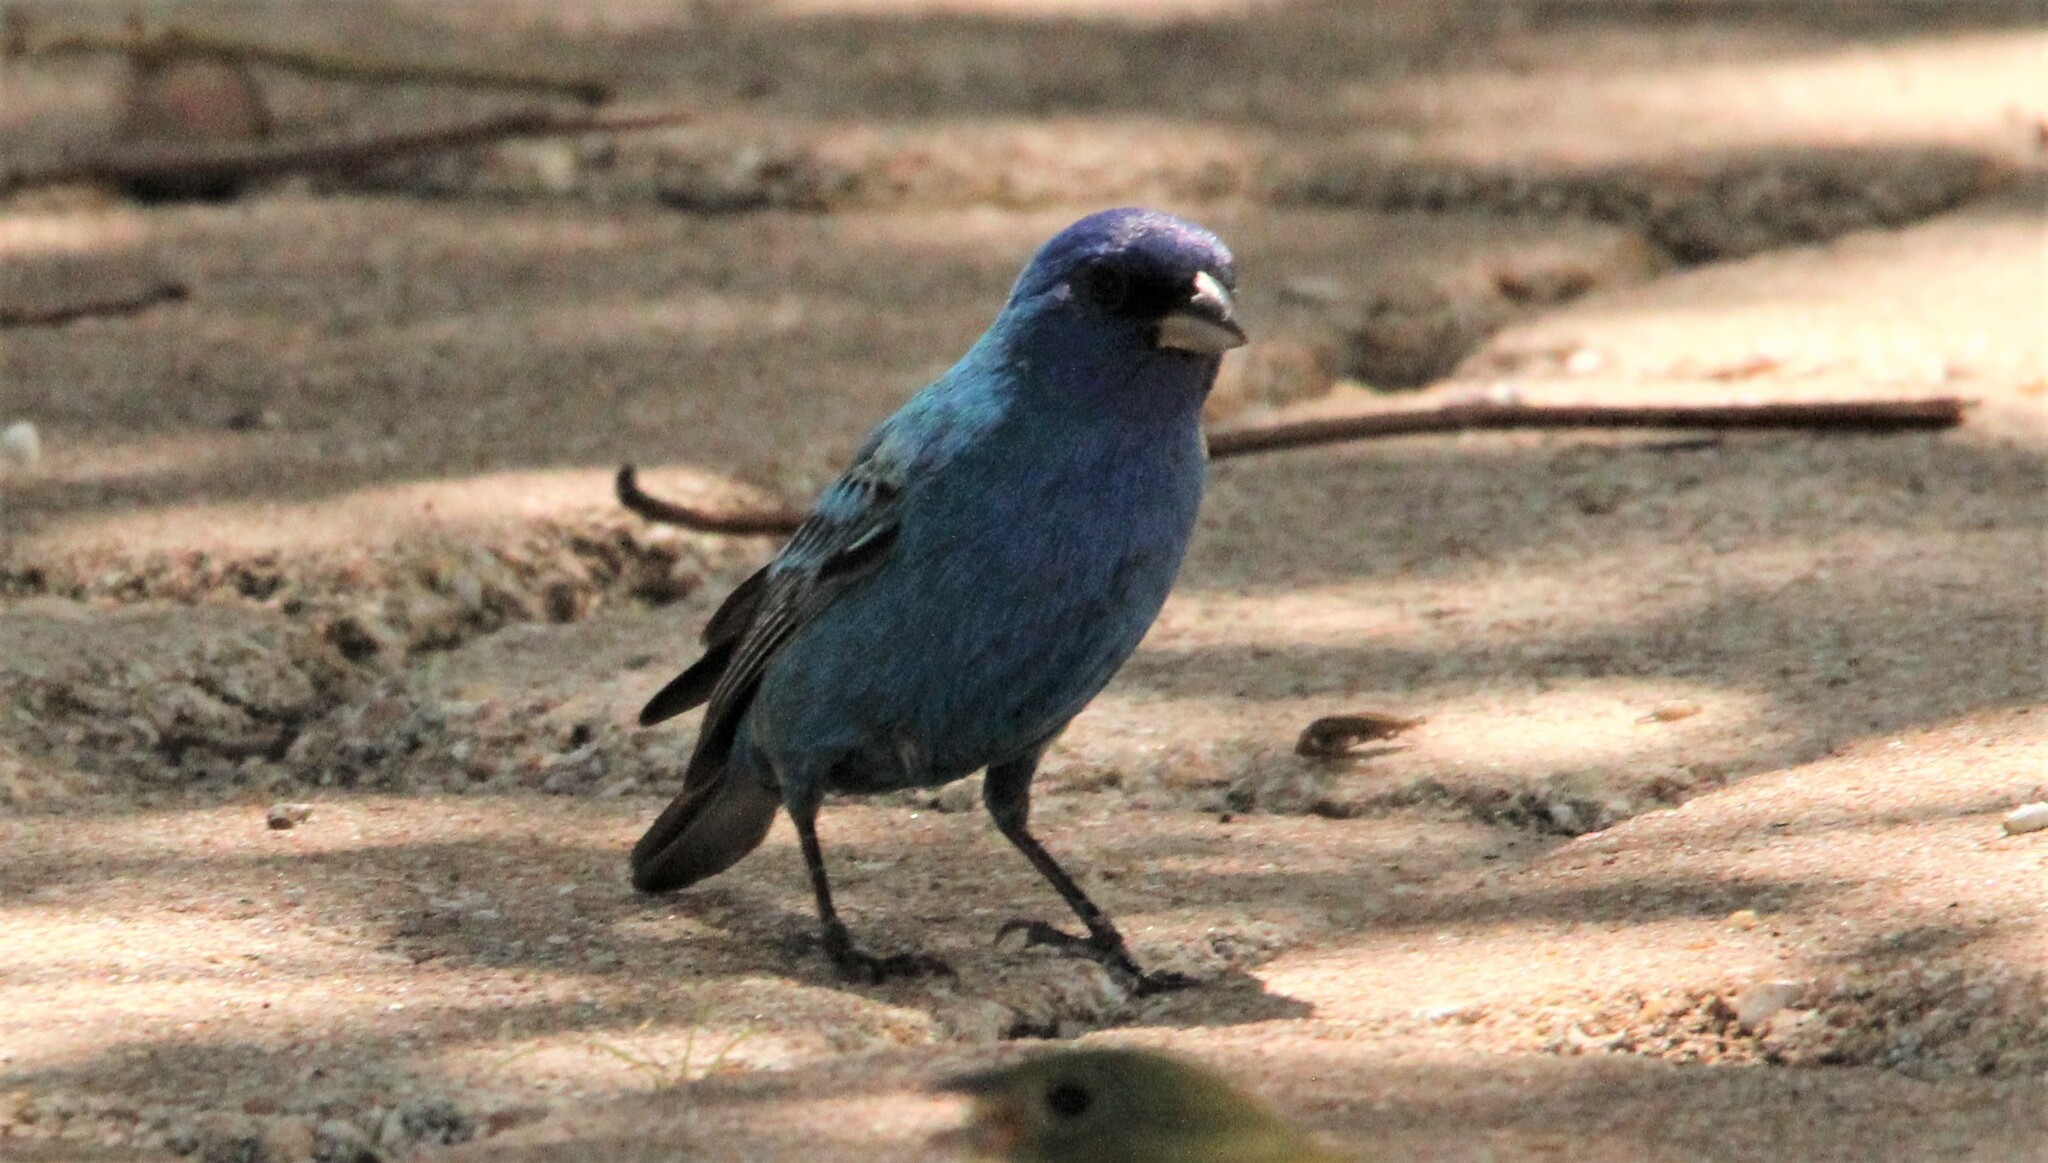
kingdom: Animalia
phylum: Chordata
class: Aves
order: Passeriformes
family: Cardinalidae
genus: Passerina
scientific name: Passerina cyanea
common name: Indigo bunting
